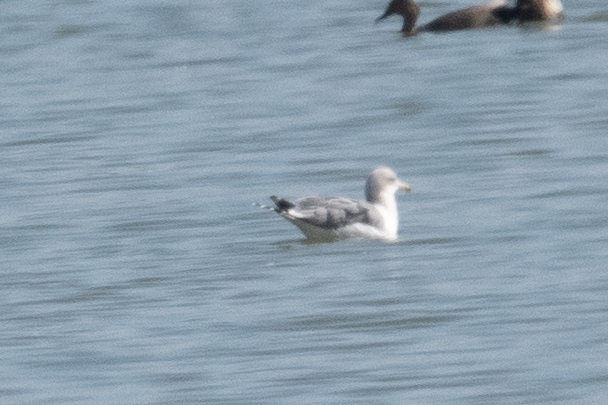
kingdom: Animalia
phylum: Chordata
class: Aves
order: Charadriiformes
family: Laridae
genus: Larus
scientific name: Larus
